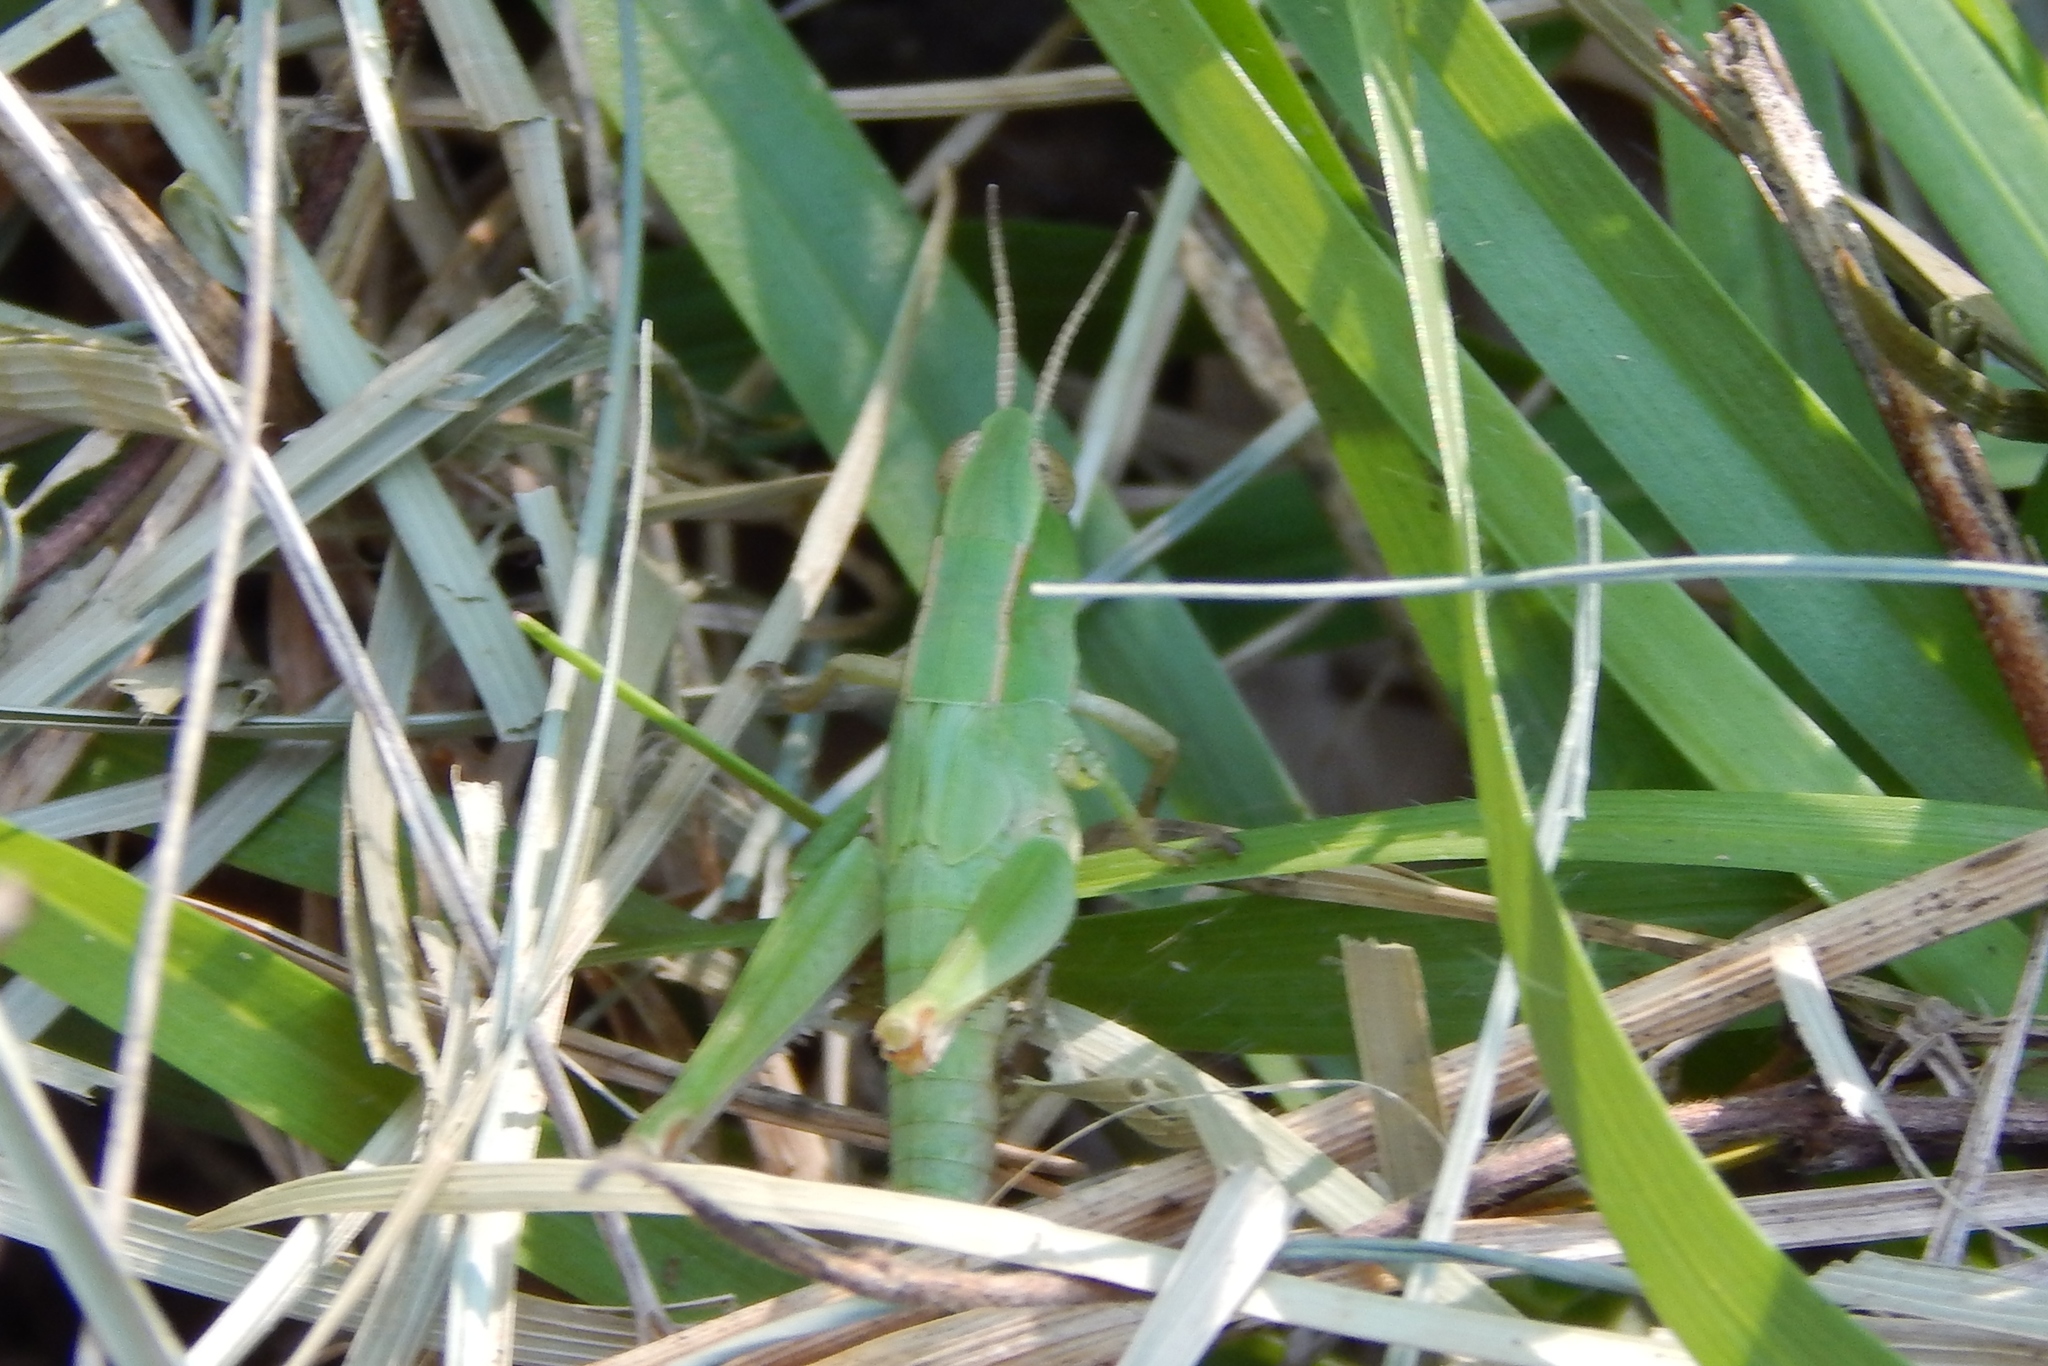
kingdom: Animalia
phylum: Arthropoda
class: Insecta
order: Orthoptera
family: Acrididae
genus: Dichromorpha
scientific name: Dichromorpha viridis
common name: Short-winged green grasshopper
